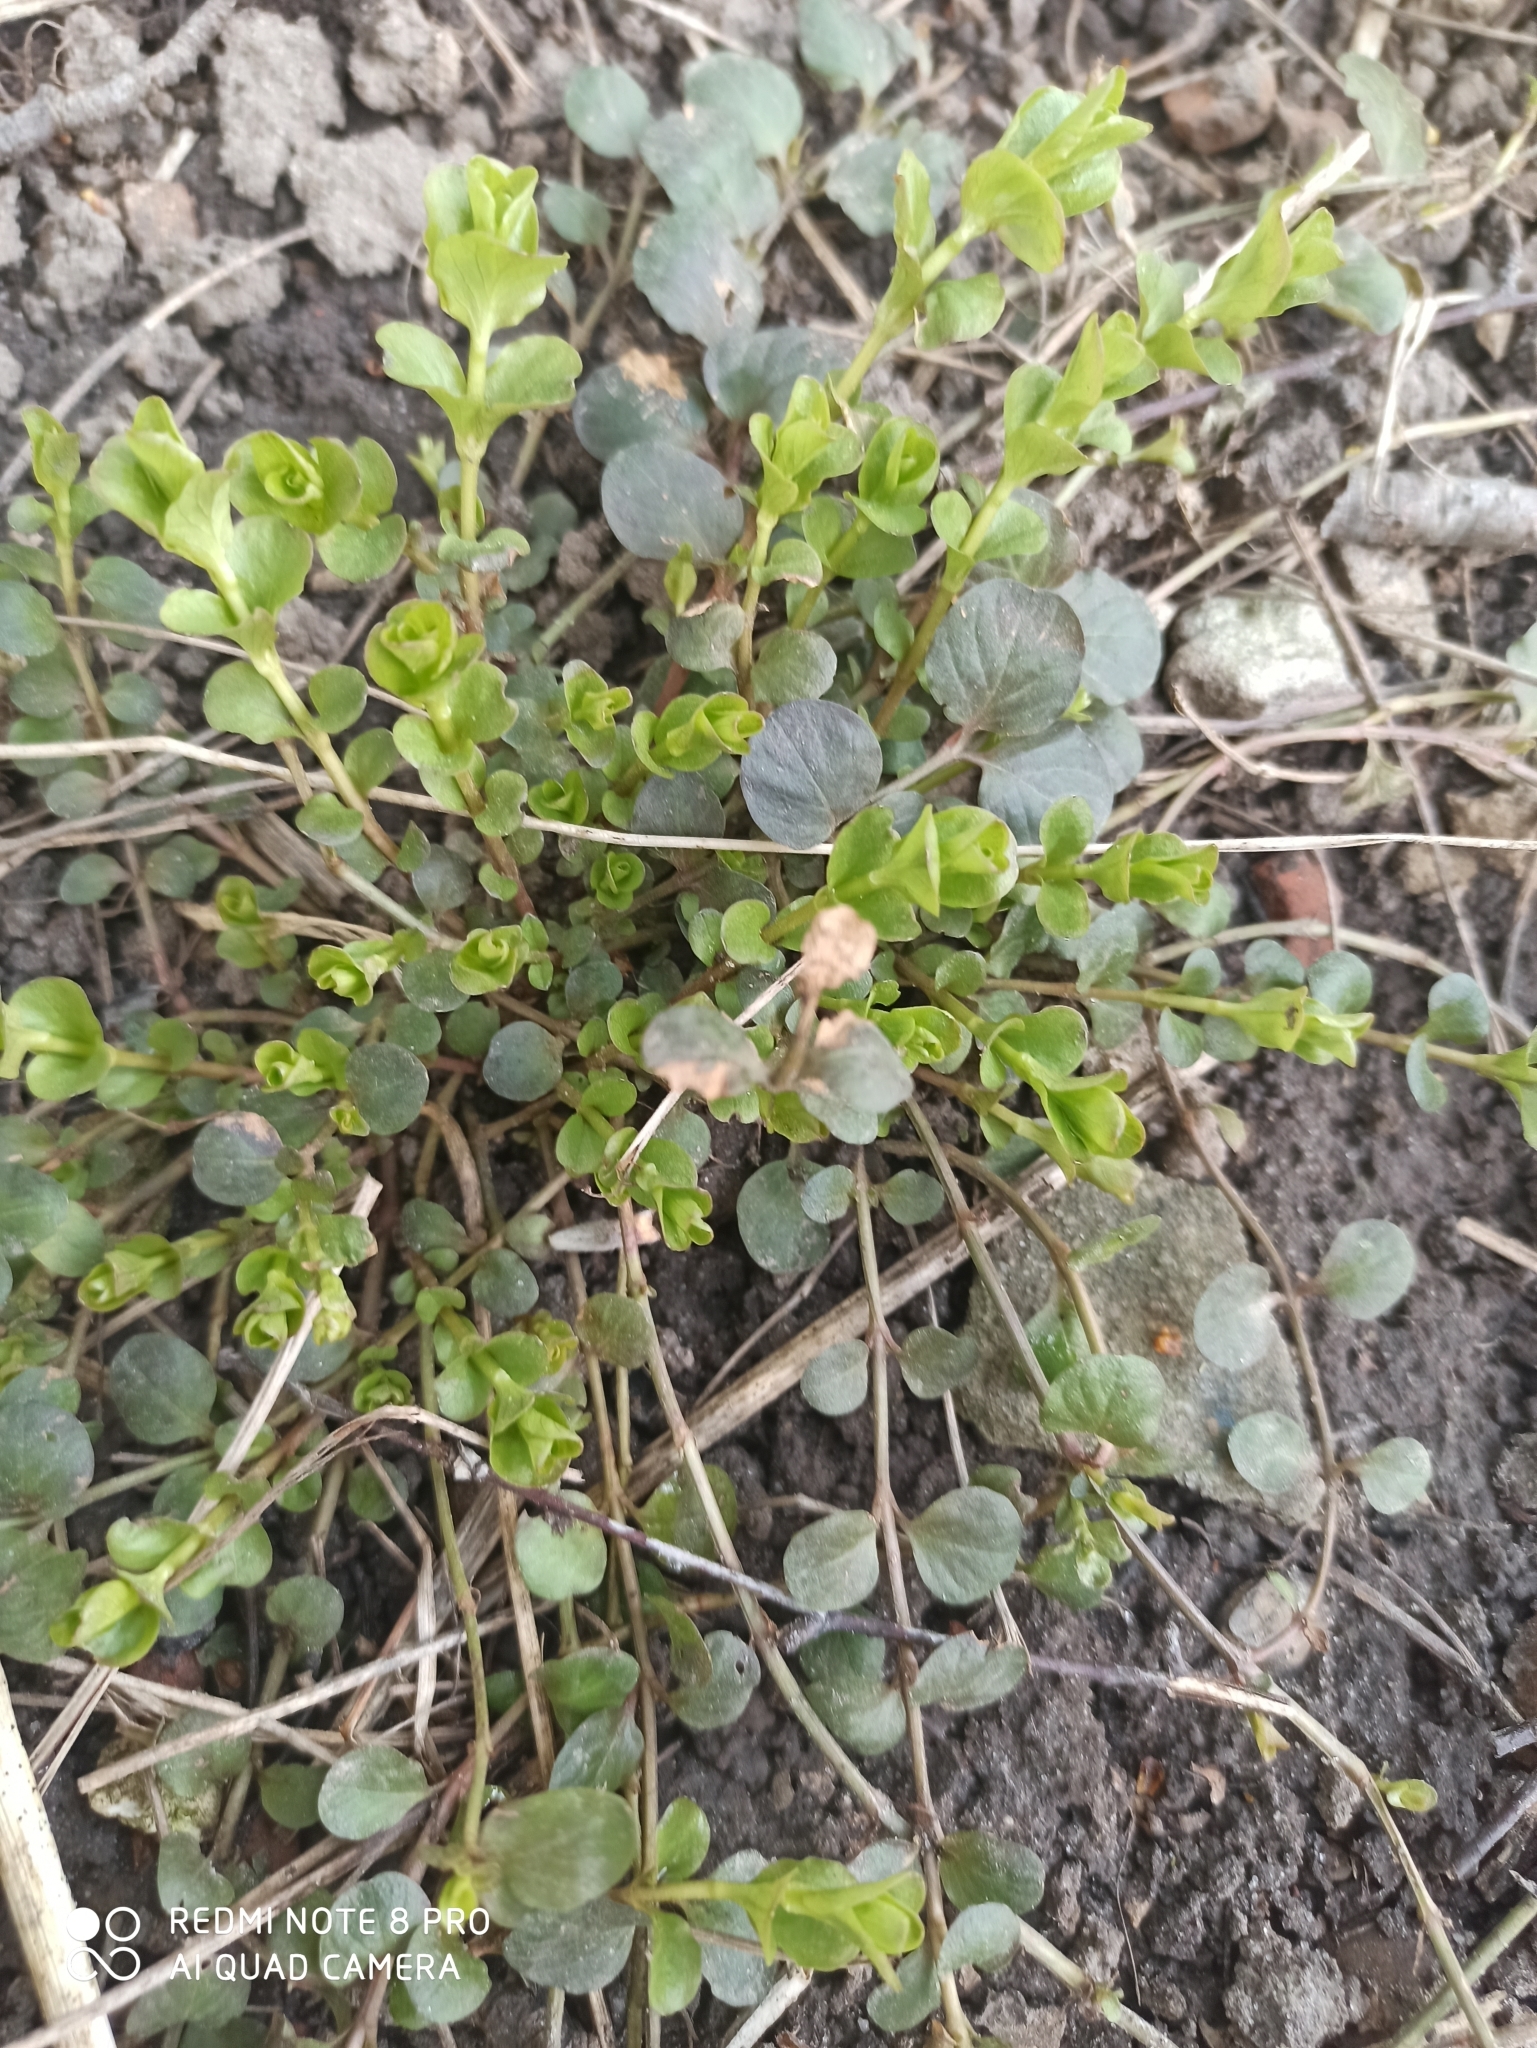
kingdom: Plantae
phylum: Tracheophyta
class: Magnoliopsida
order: Ericales
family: Primulaceae
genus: Lysimachia
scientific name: Lysimachia nummularia
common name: Moneywort
